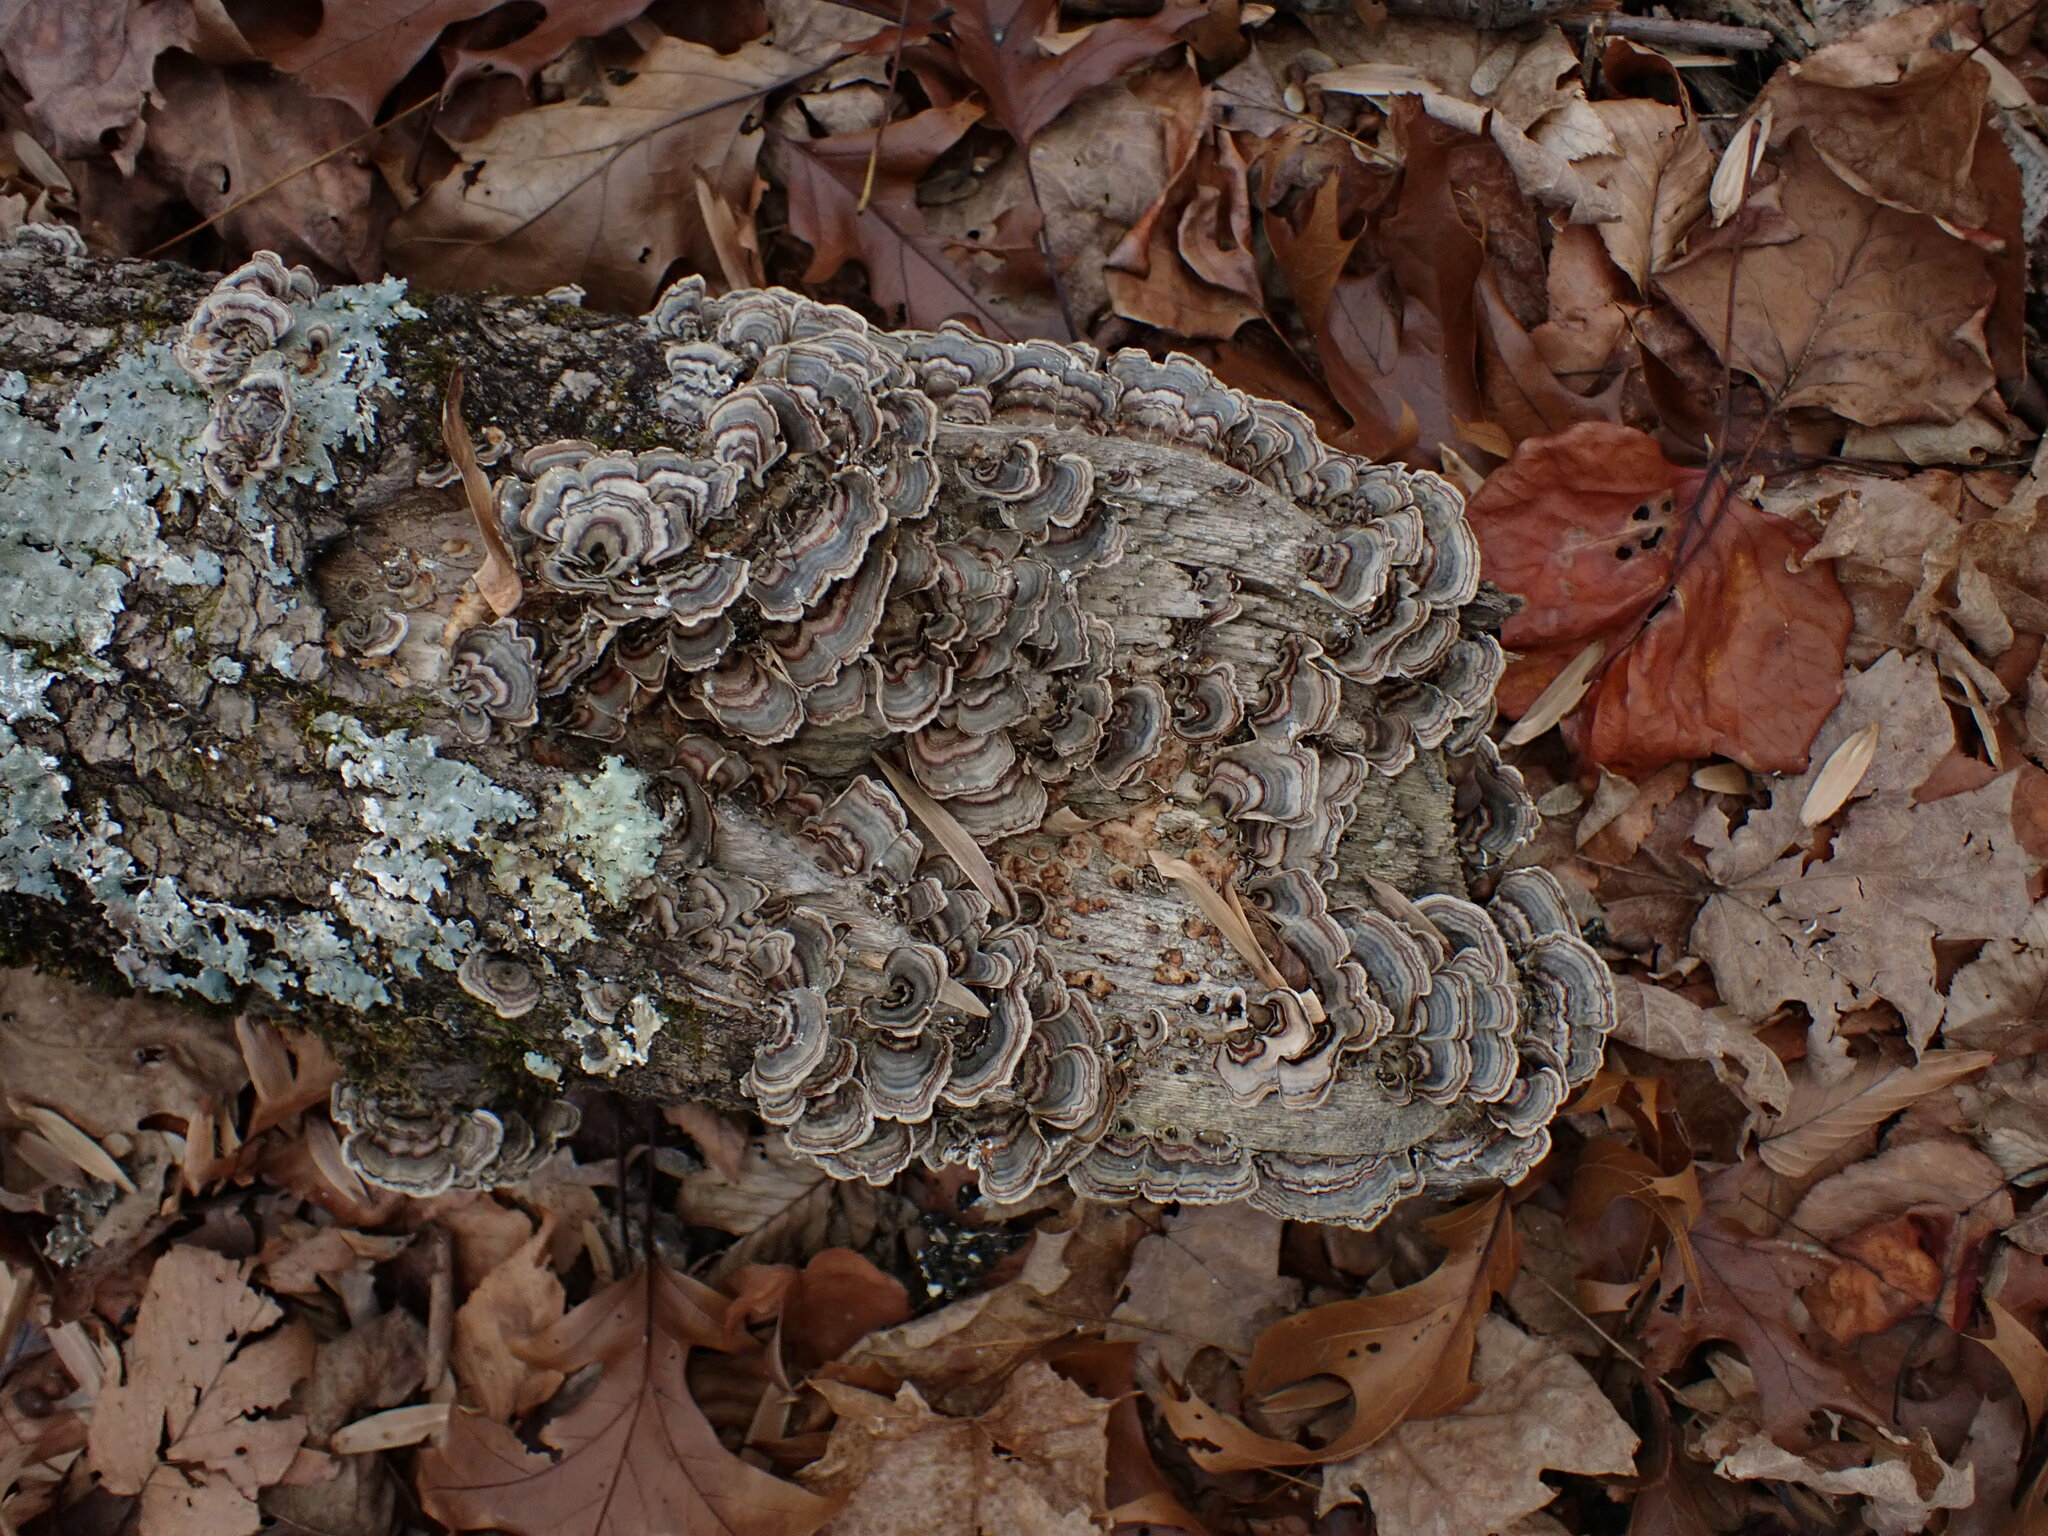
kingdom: Fungi
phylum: Basidiomycota
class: Agaricomycetes
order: Polyporales
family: Polyporaceae
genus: Trametes
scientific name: Trametes versicolor
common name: Turkeytail
